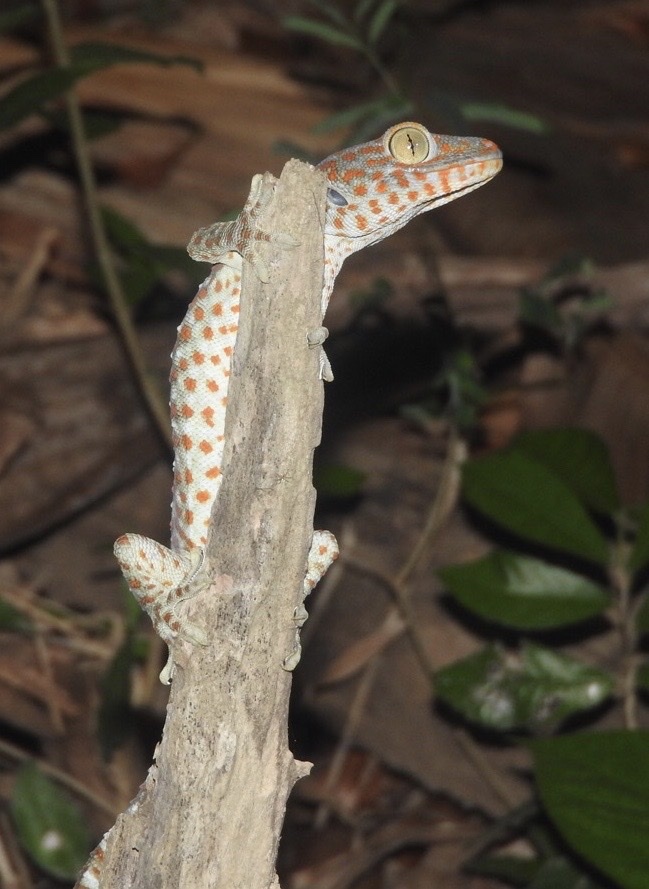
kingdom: Animalia
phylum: Chordata
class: Squamata
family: Gekkonidae
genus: Gekko
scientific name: Gekko gecko
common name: Tokay gecko
